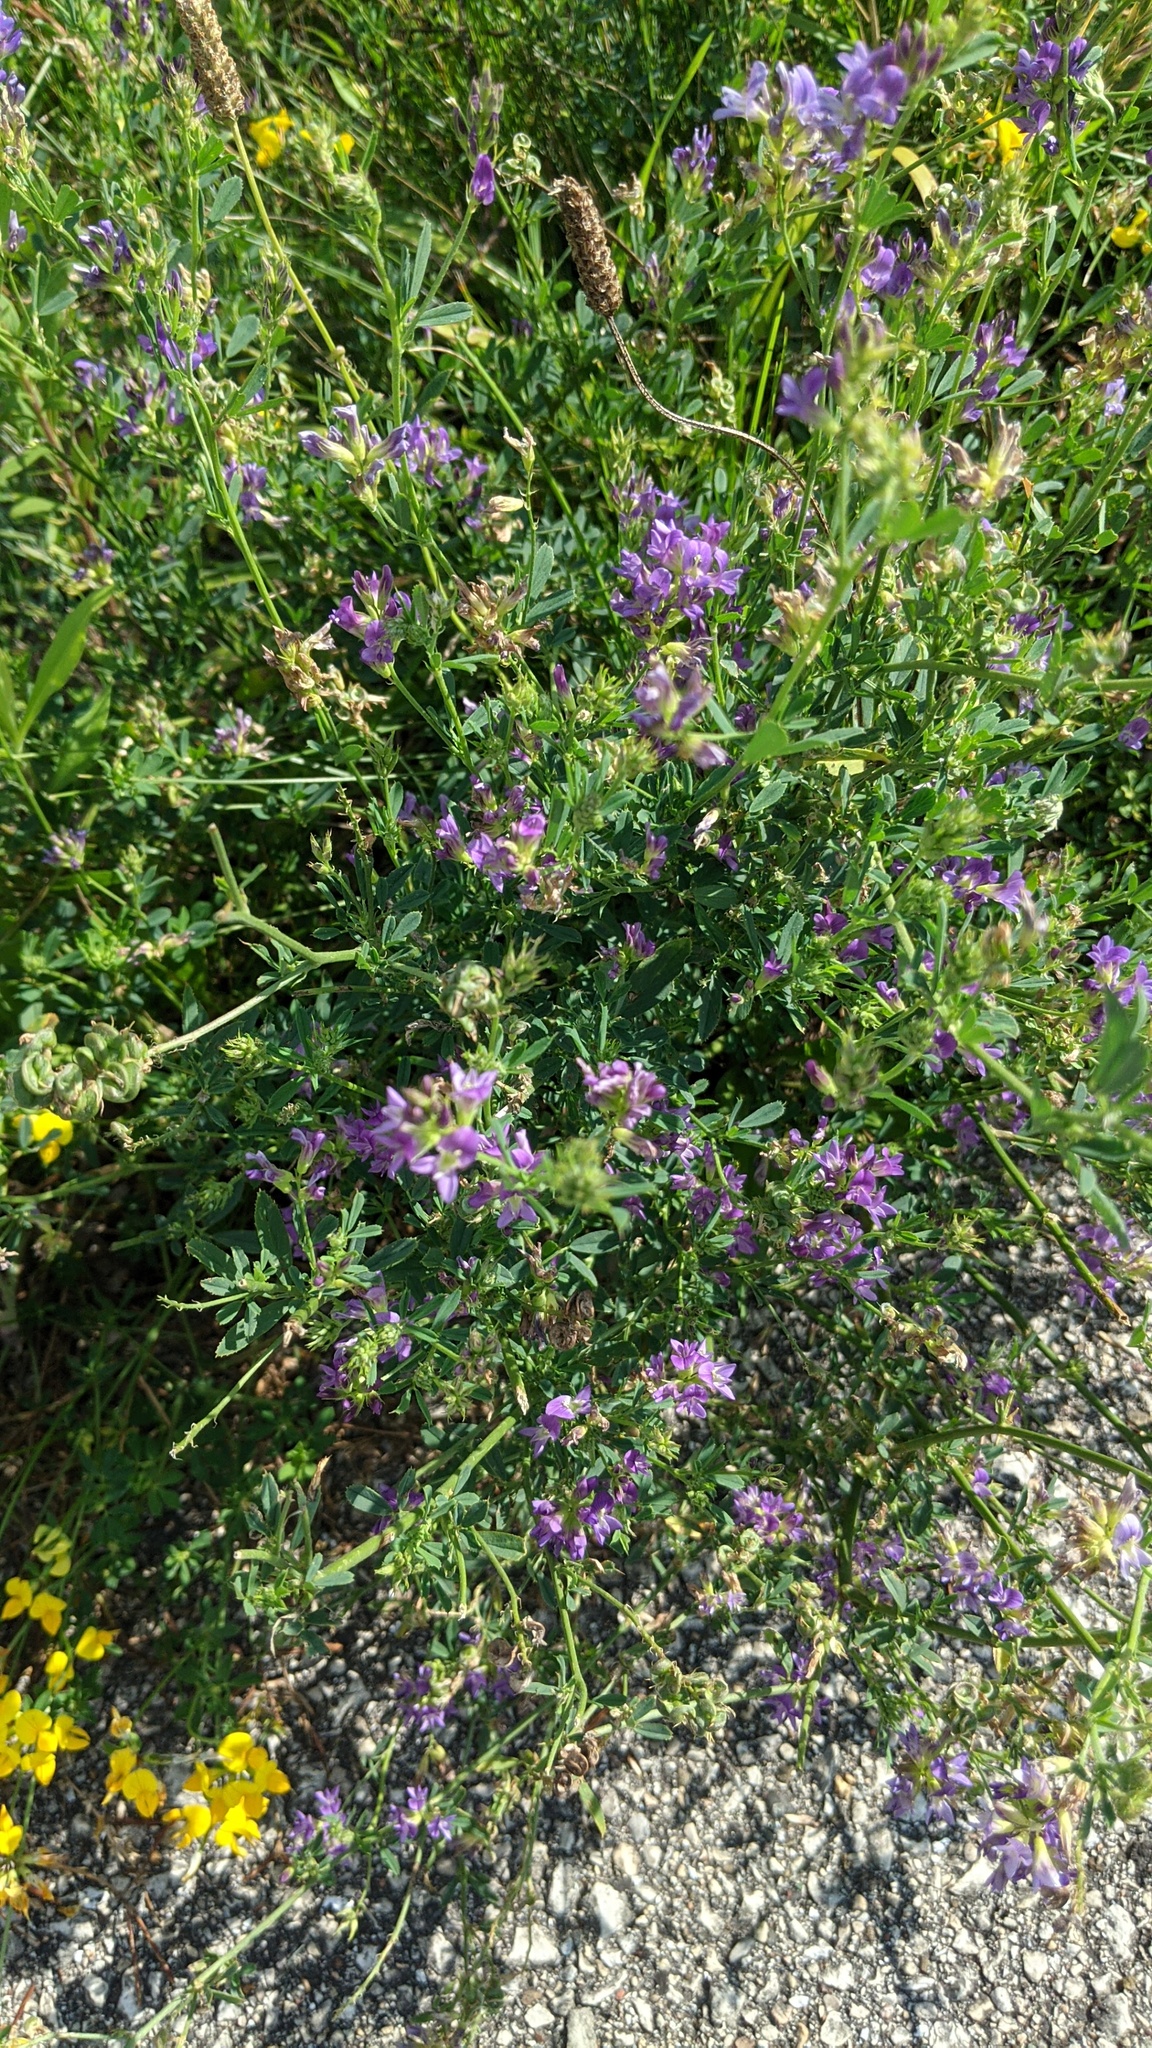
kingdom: Plantae
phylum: Tracheophyta
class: Magnoliopsida
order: Fabales
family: Fabaceae
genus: Medicago
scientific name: Medicago sativa
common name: Alfalfa
